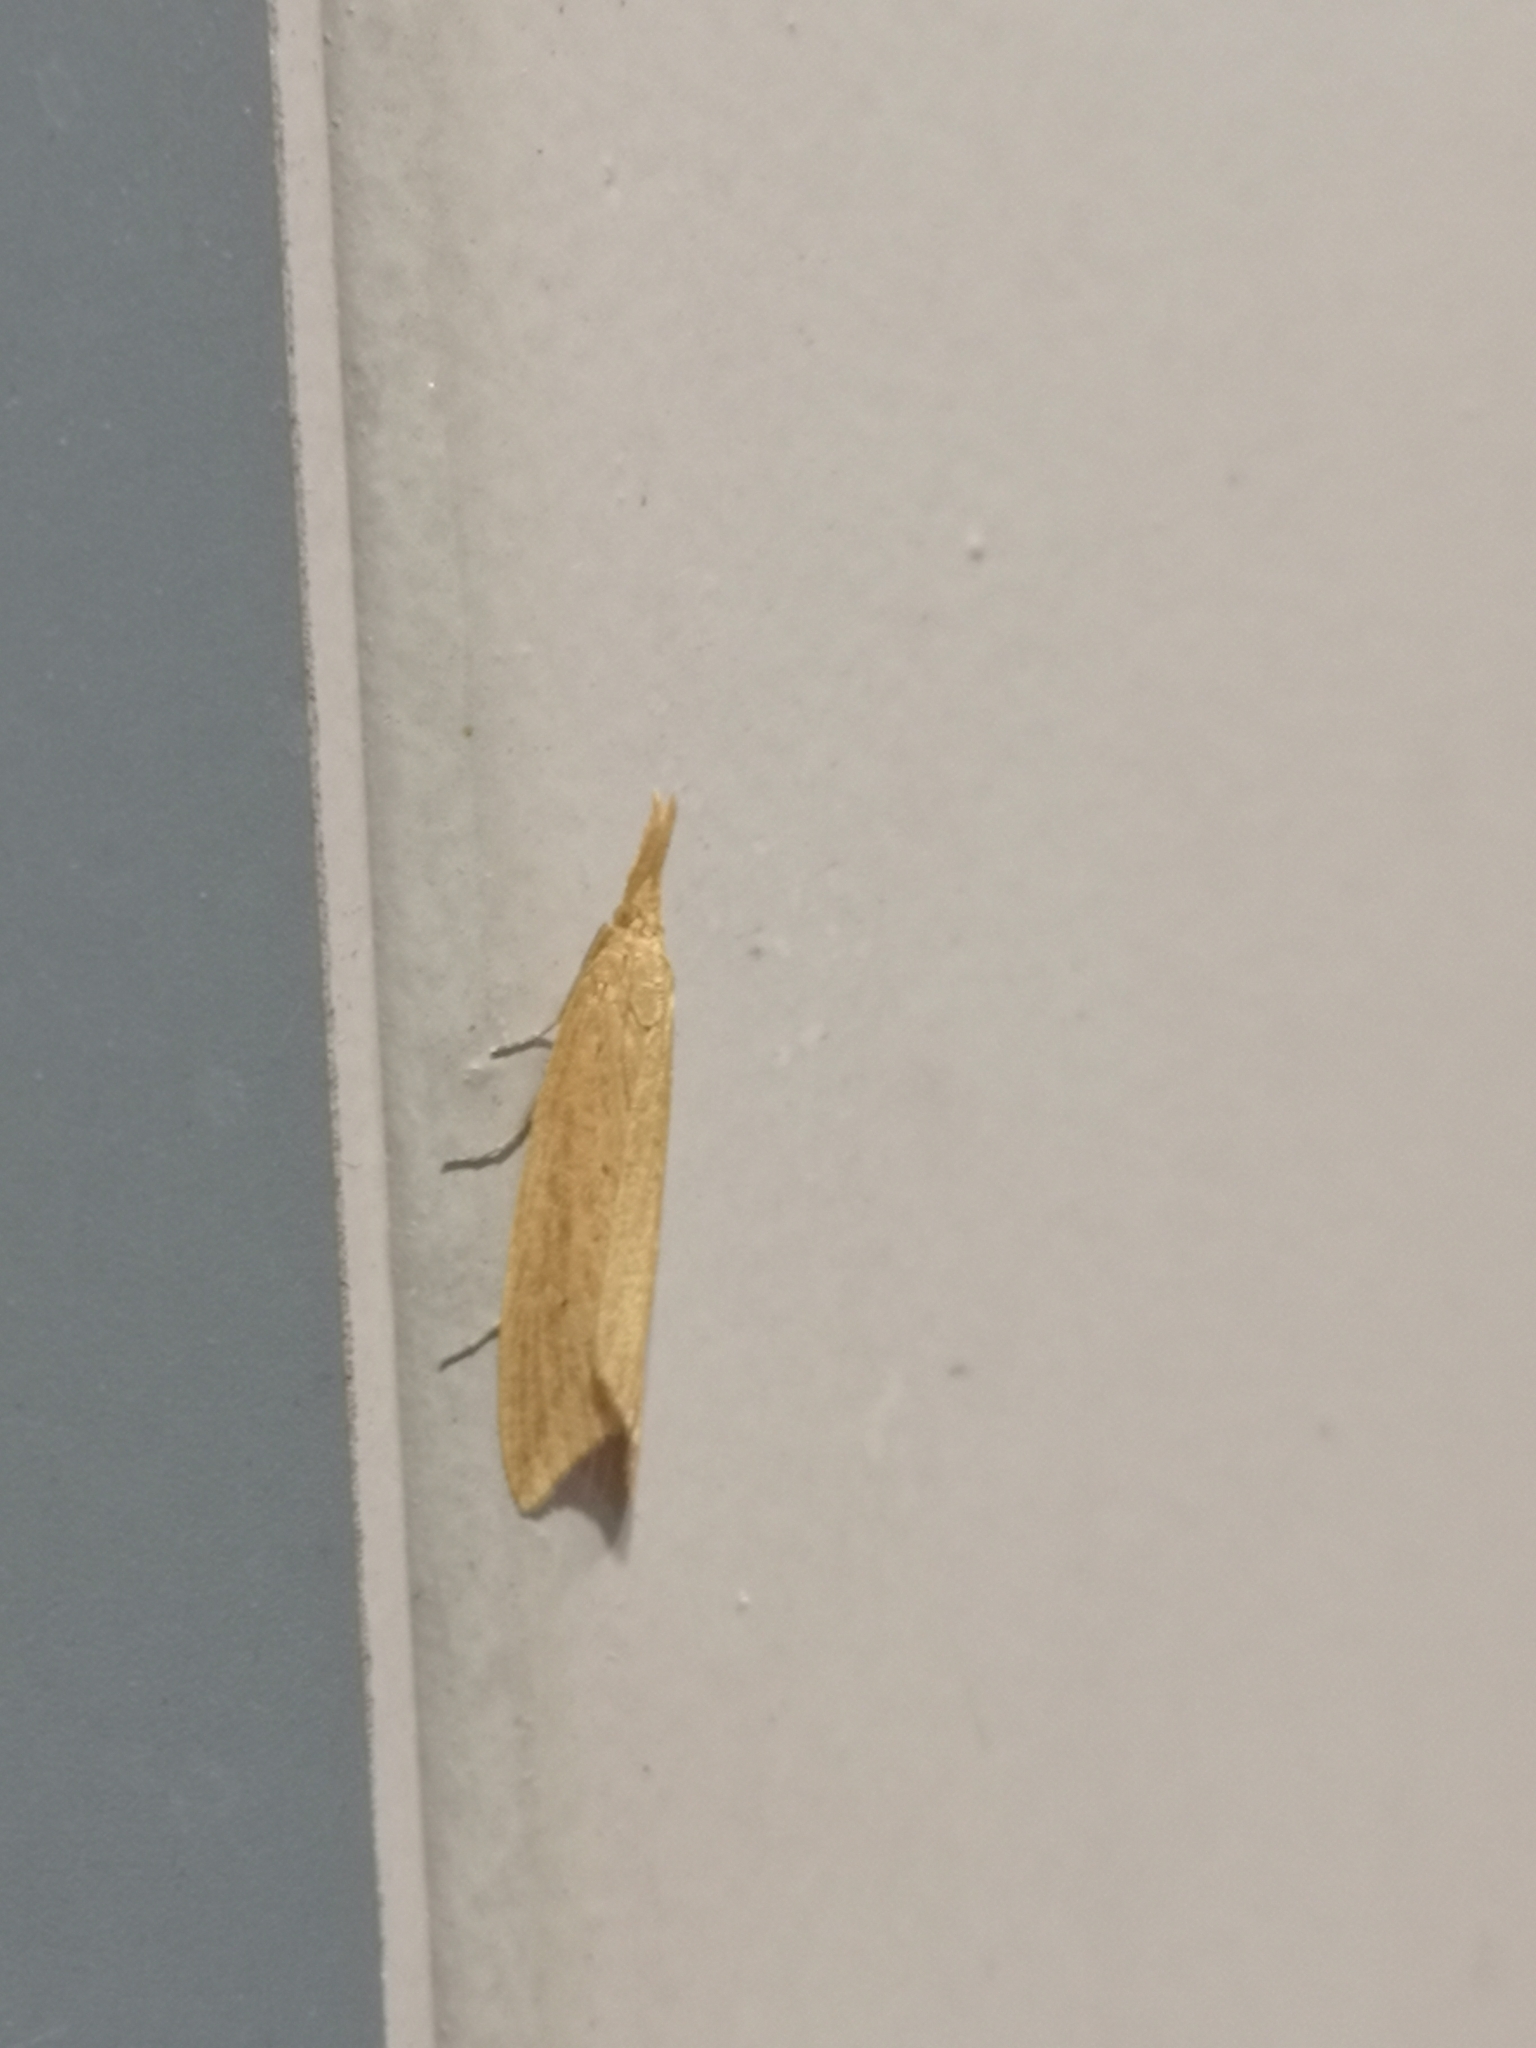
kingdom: Animalia
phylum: Arthropoda
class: Insecta
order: Lepidoptera
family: Crambidae
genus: Donacaula
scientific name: Donacaula forficella
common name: Pale water-veneer
